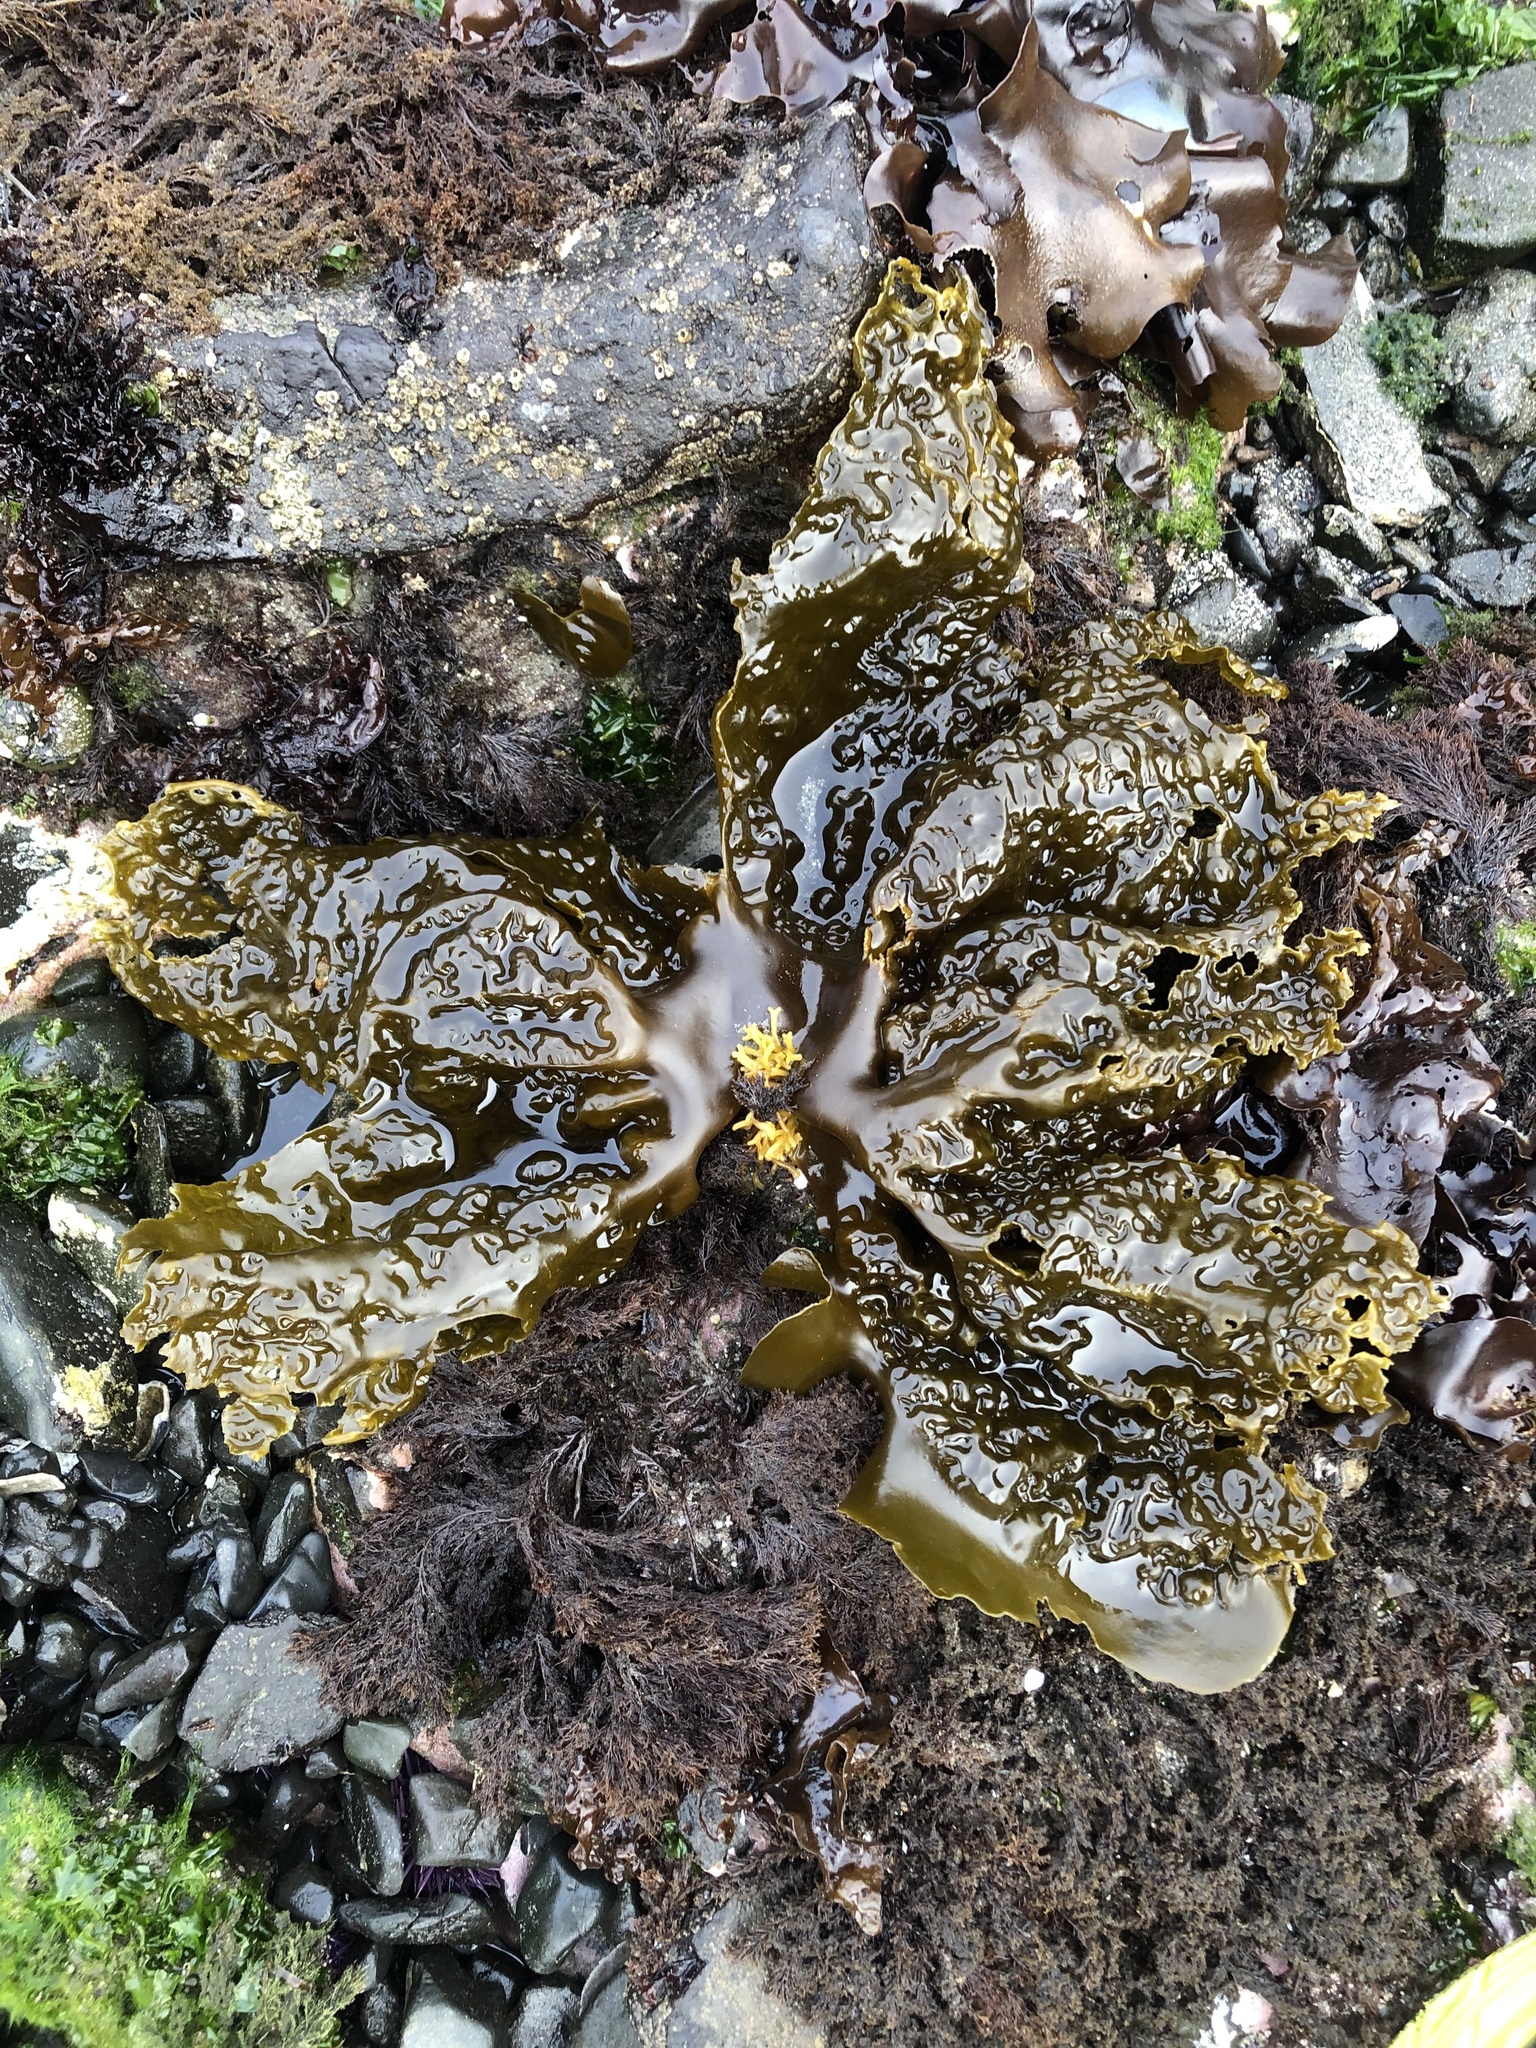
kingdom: Chromista
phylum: Ochrophyta
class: Phaeophyceae
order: Laminariales
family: Laminariaceae
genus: Hedophyllum
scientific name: Hedophyllum sessile
